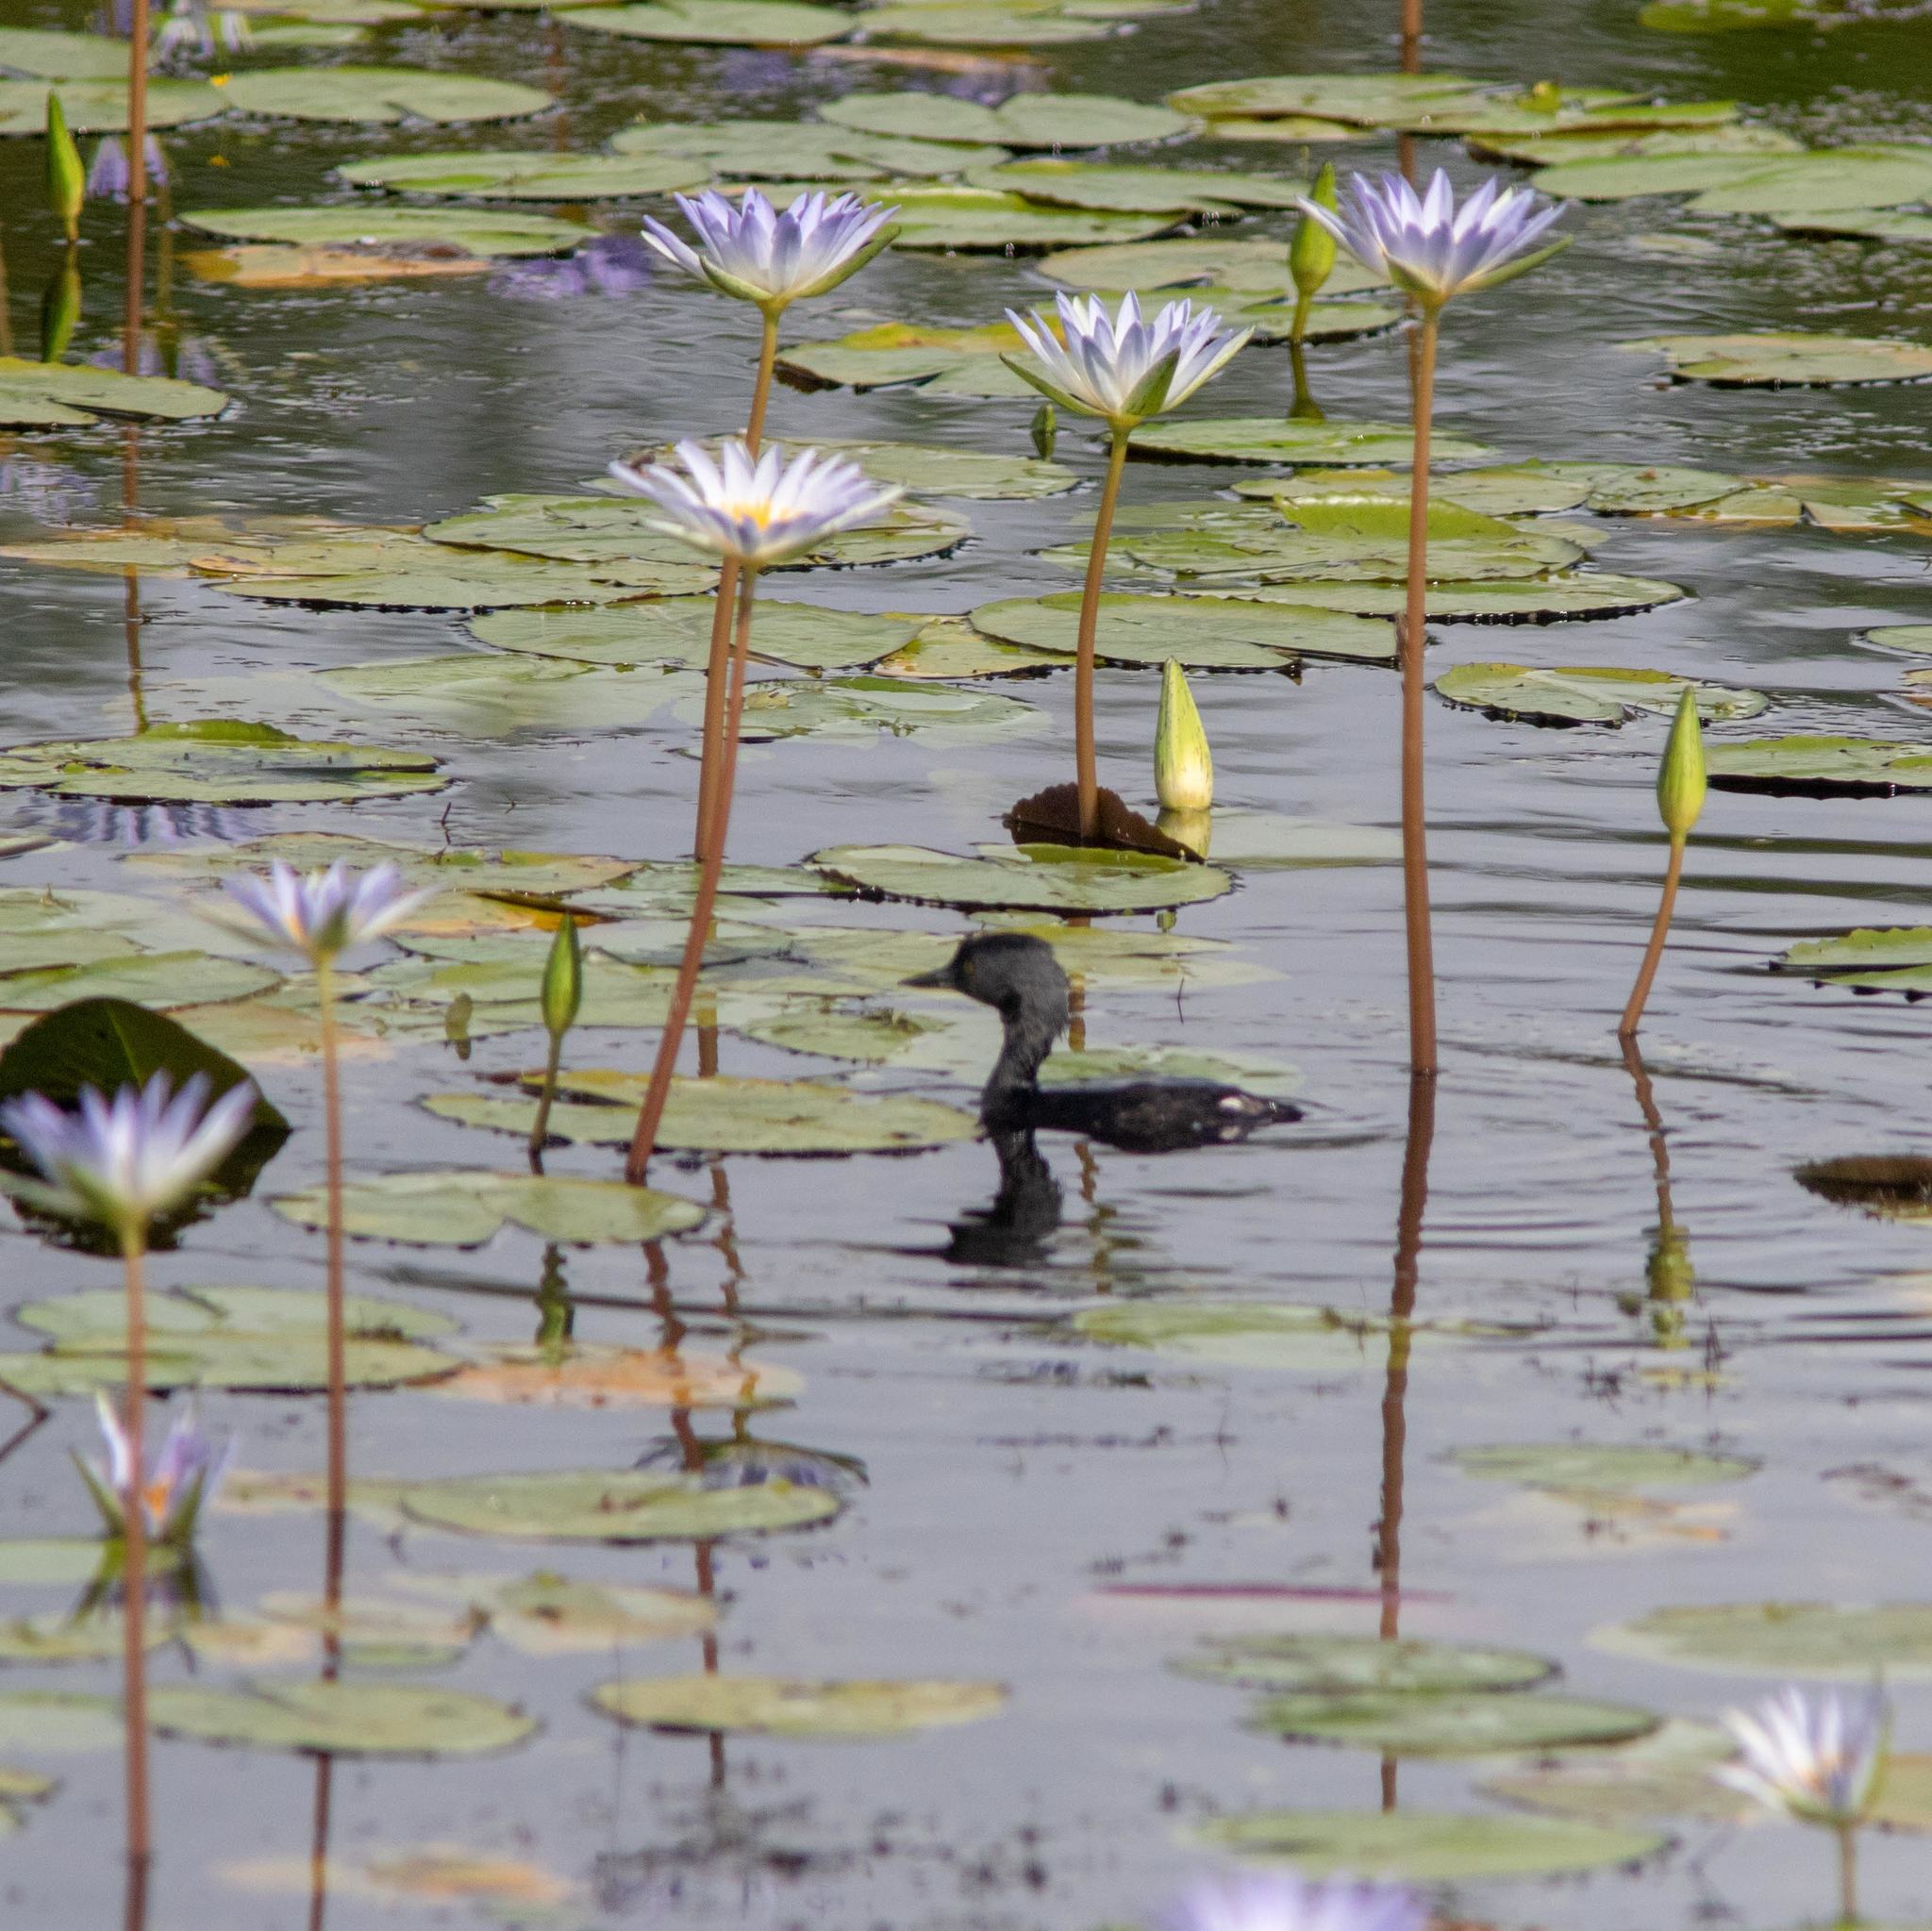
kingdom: Animalia
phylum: Chordata
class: Aves
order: Podicipediformes
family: Podicipedidae
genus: Tachybaptus
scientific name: Tachybaptus dominicus
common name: Least grebe
